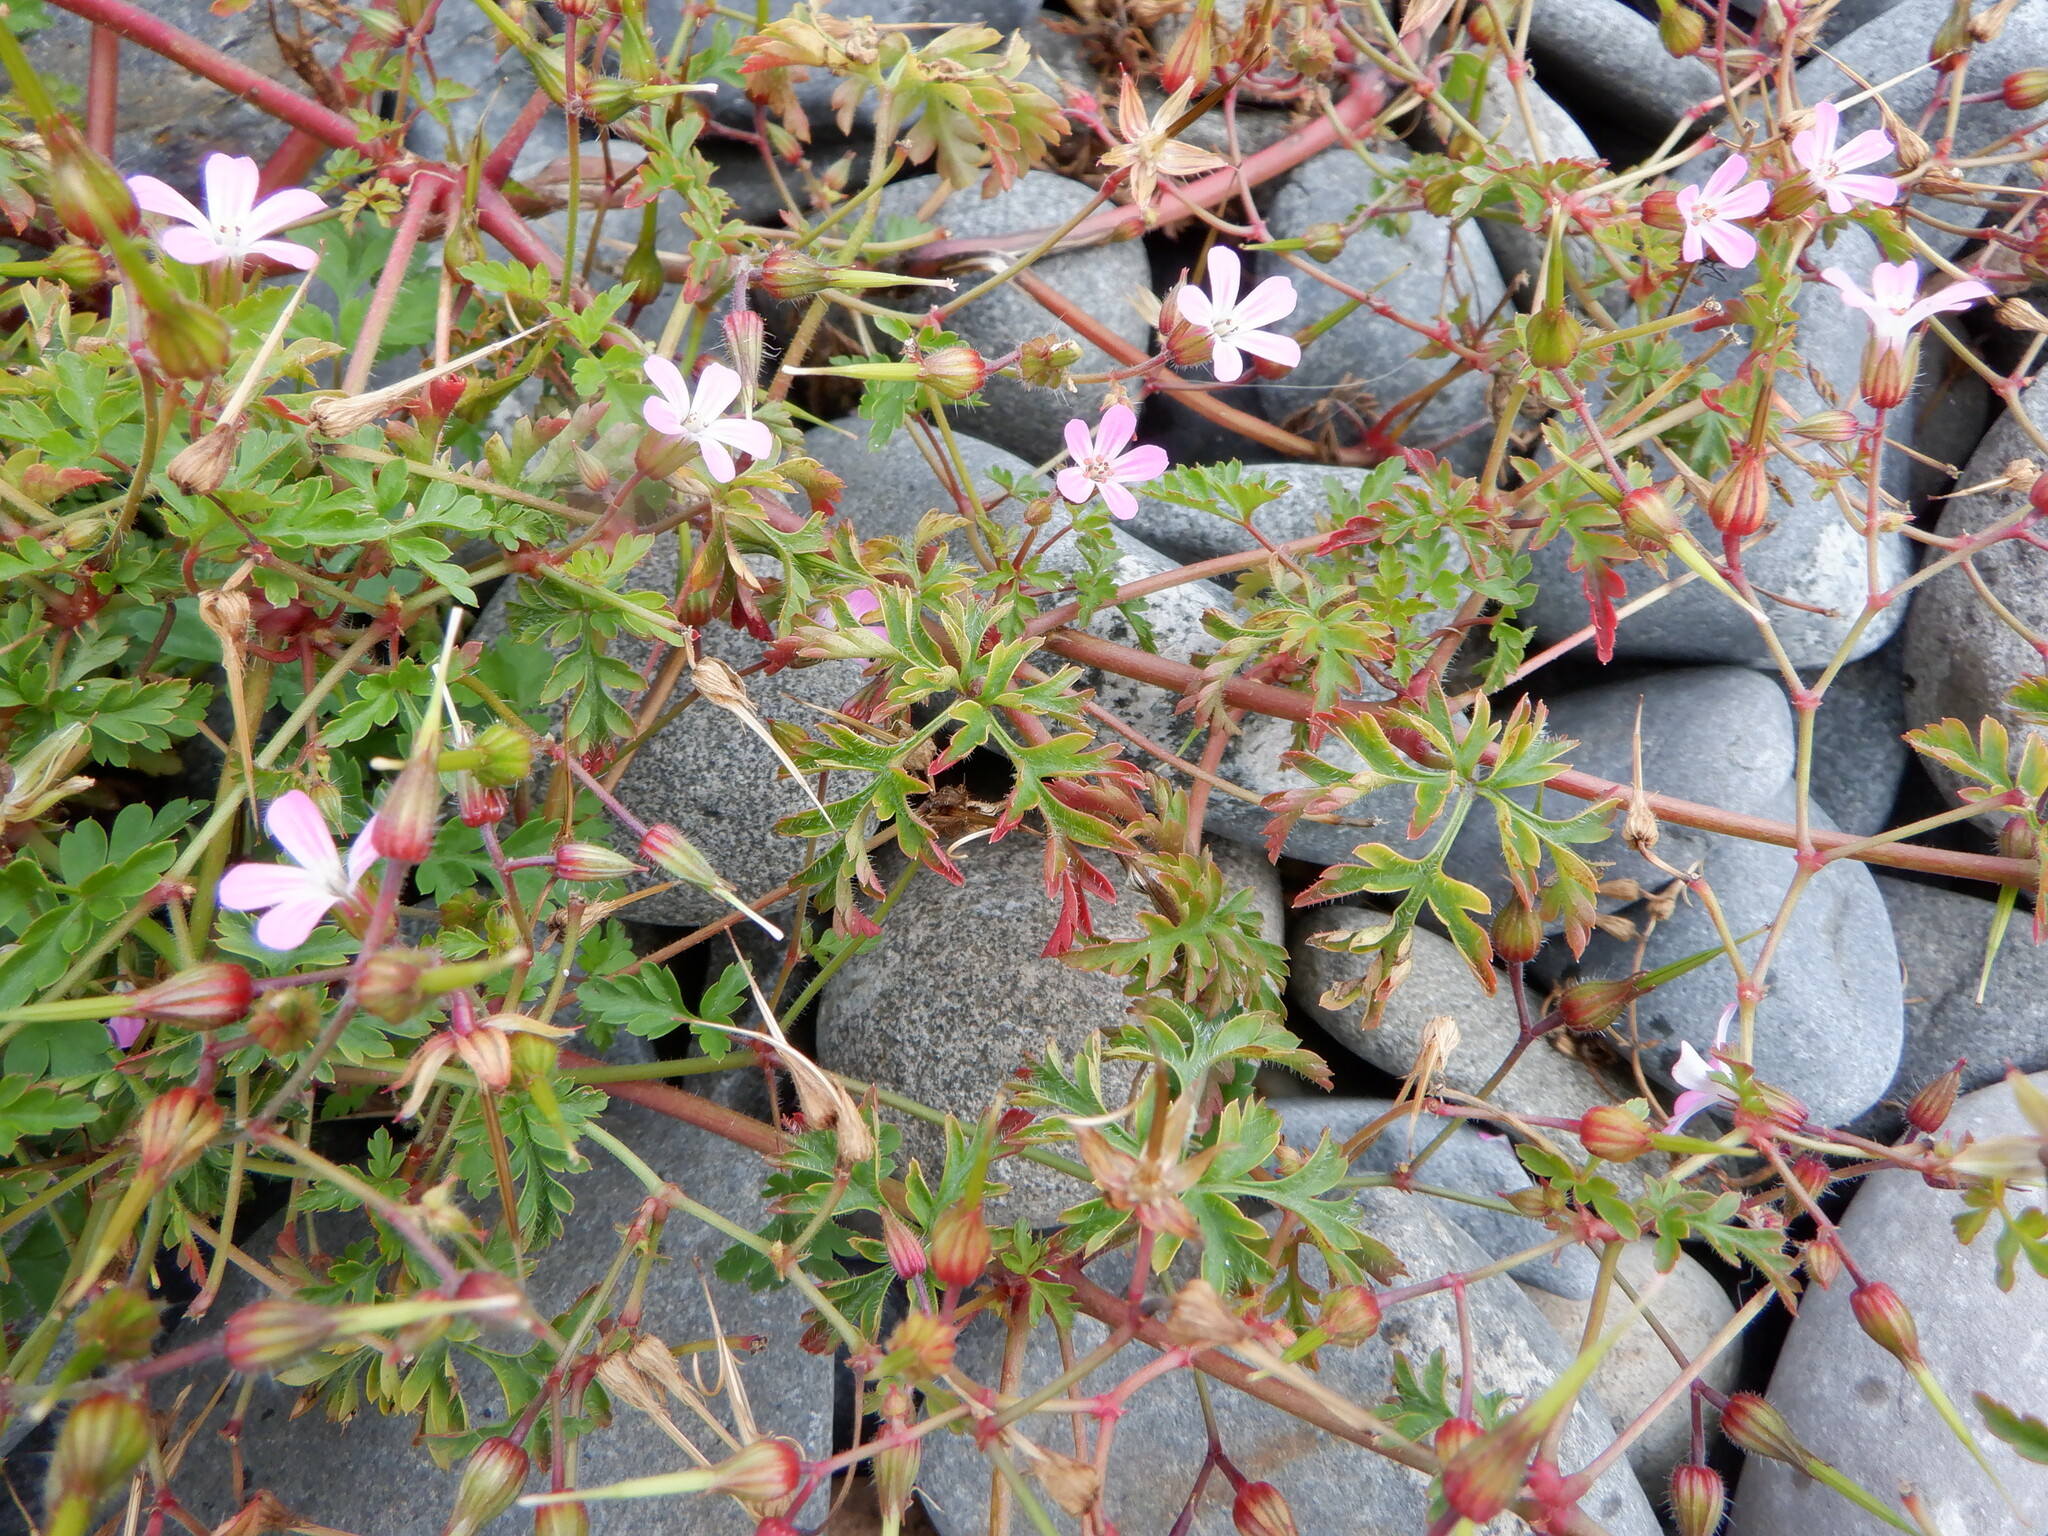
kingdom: Plantae
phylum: Tracheophyta
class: Magnoliopsida
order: Geraniales
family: Geraniaceae
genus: Geranium
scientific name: Geranium robertianum
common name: Herb-robert
